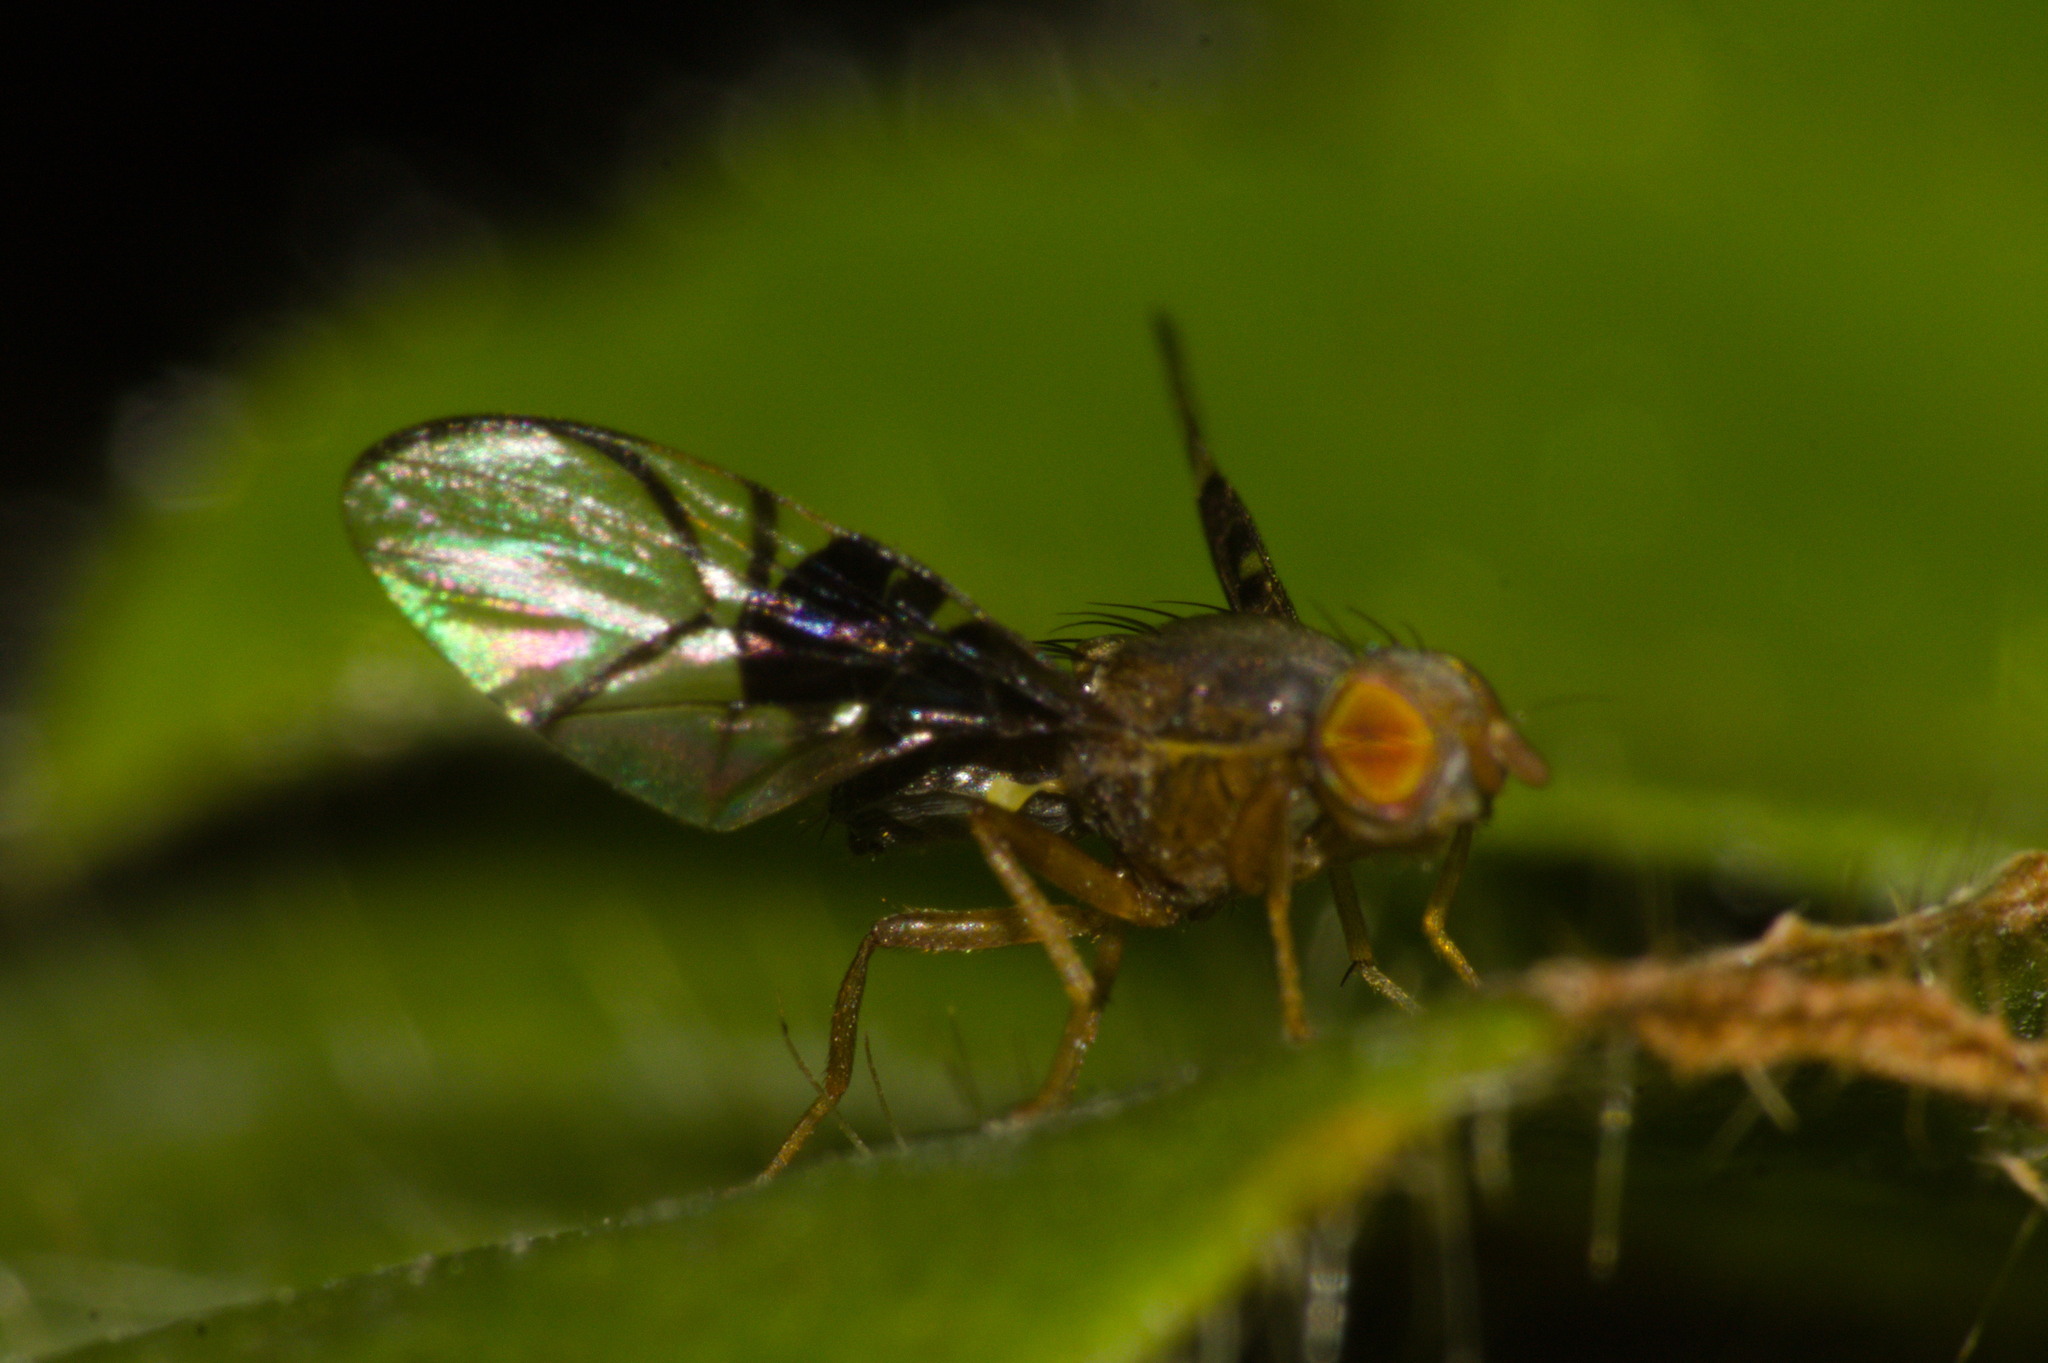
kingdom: Animalia
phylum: Arthropoda
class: Insecta
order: Diptera
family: Tephritidae
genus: Anomoia
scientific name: Anomoia purmunda
